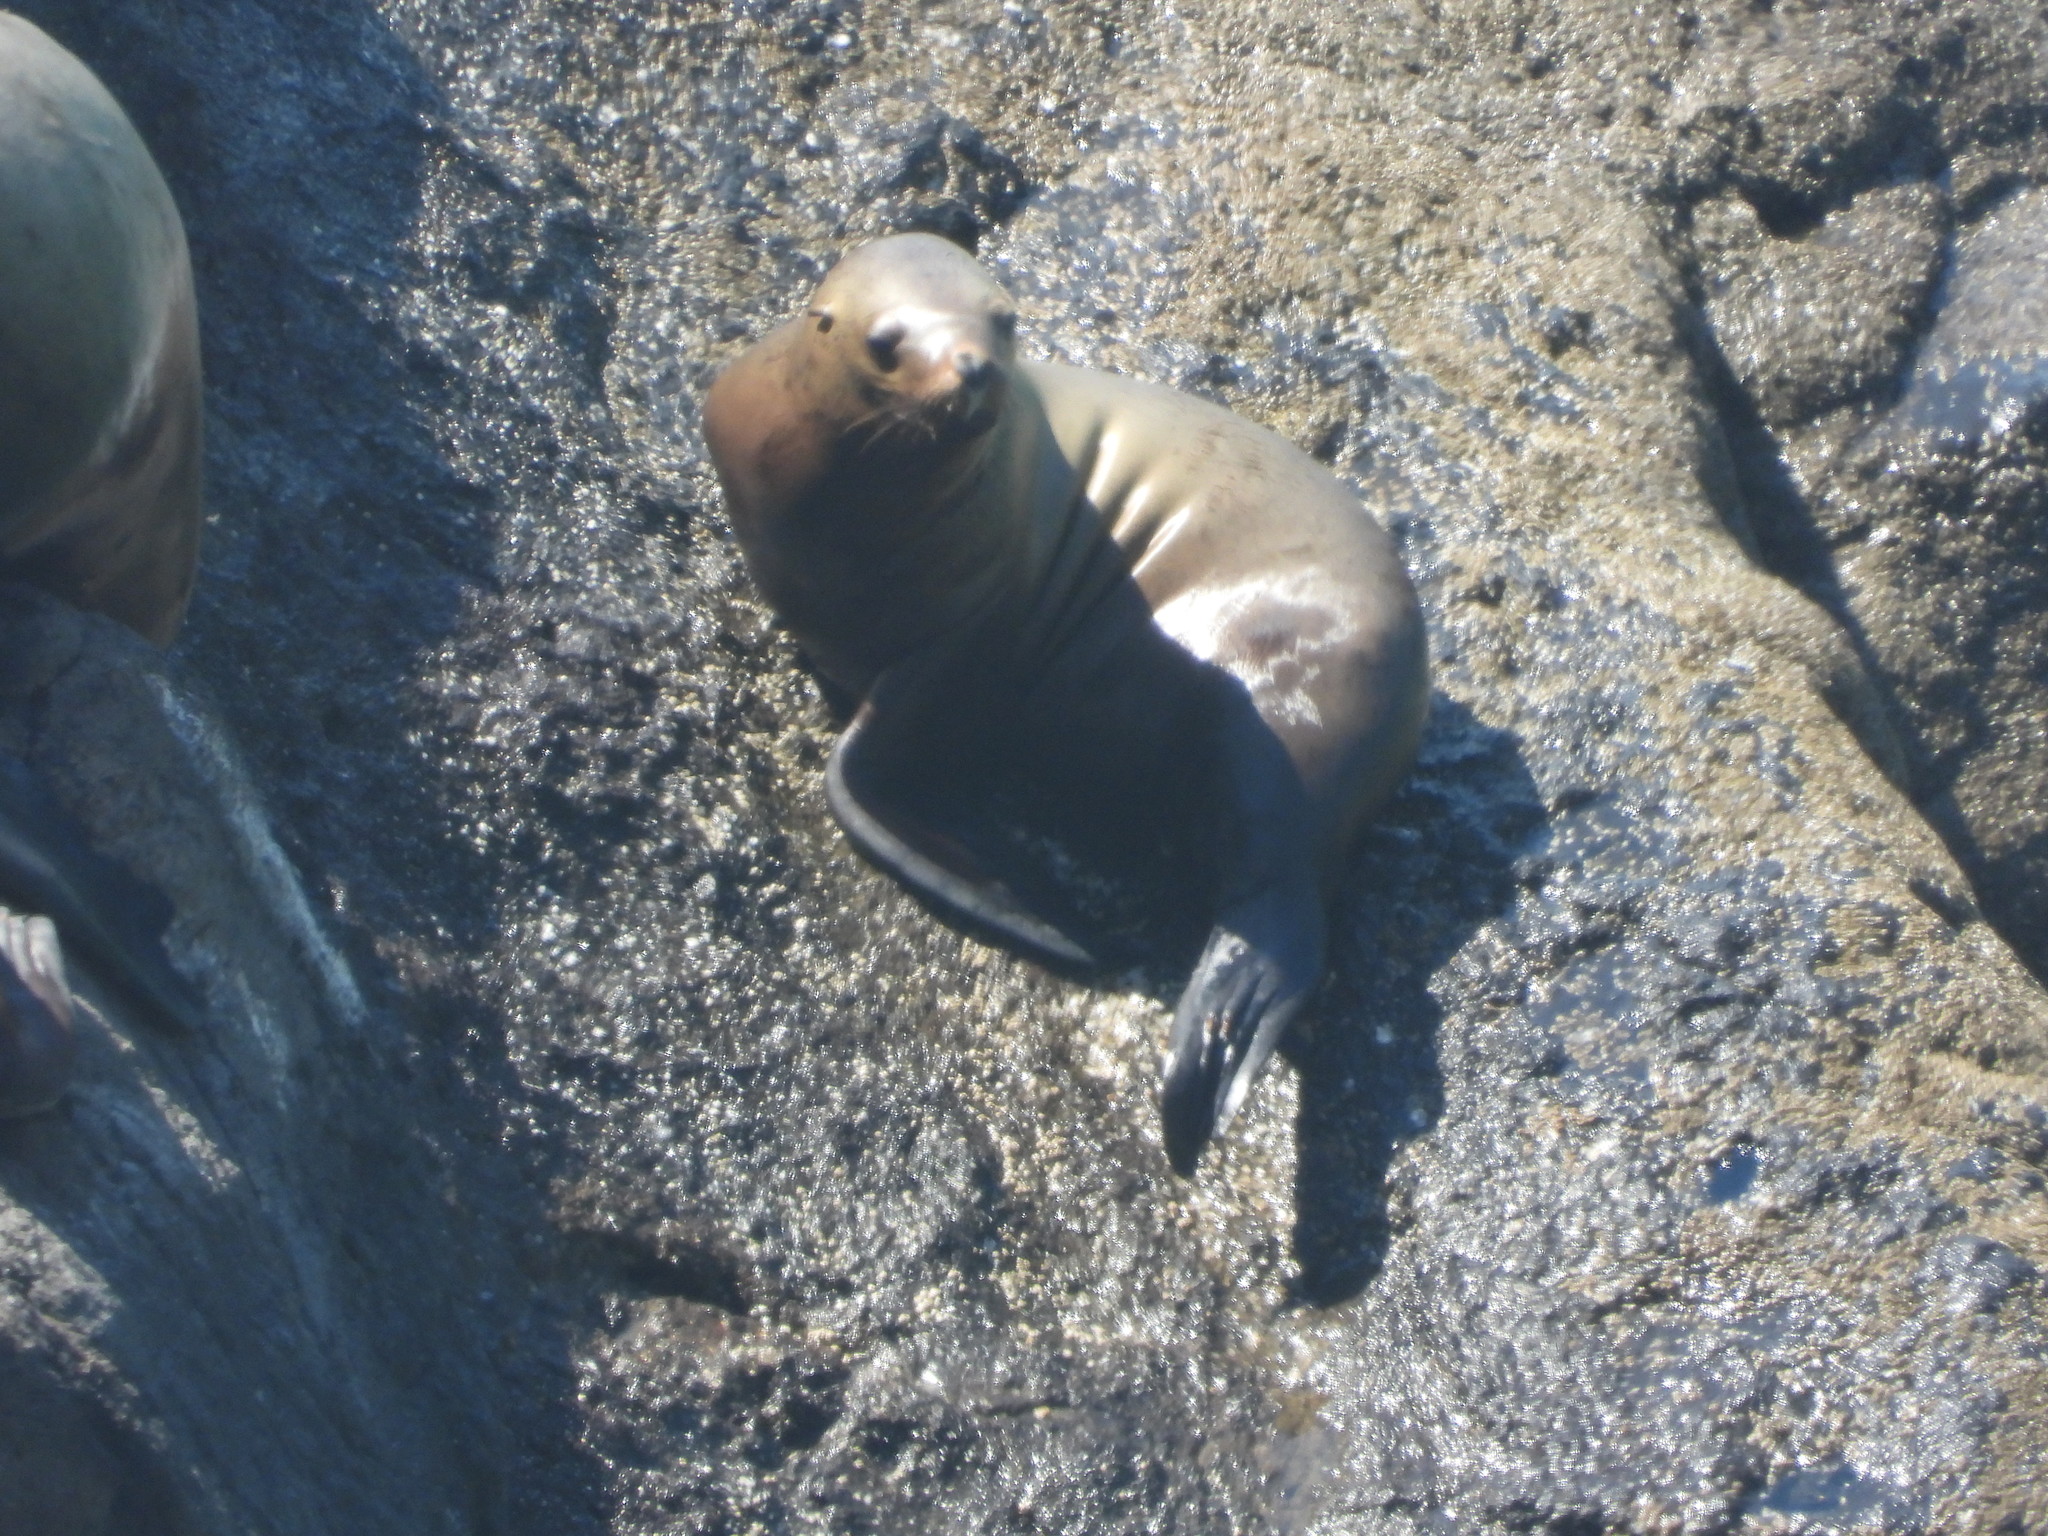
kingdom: Animalia
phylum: Chordata
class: Mammalia
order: Carnivora
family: Otariidae
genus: Eumetopias
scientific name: Eumetopias jubatus
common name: Steller sea lion
